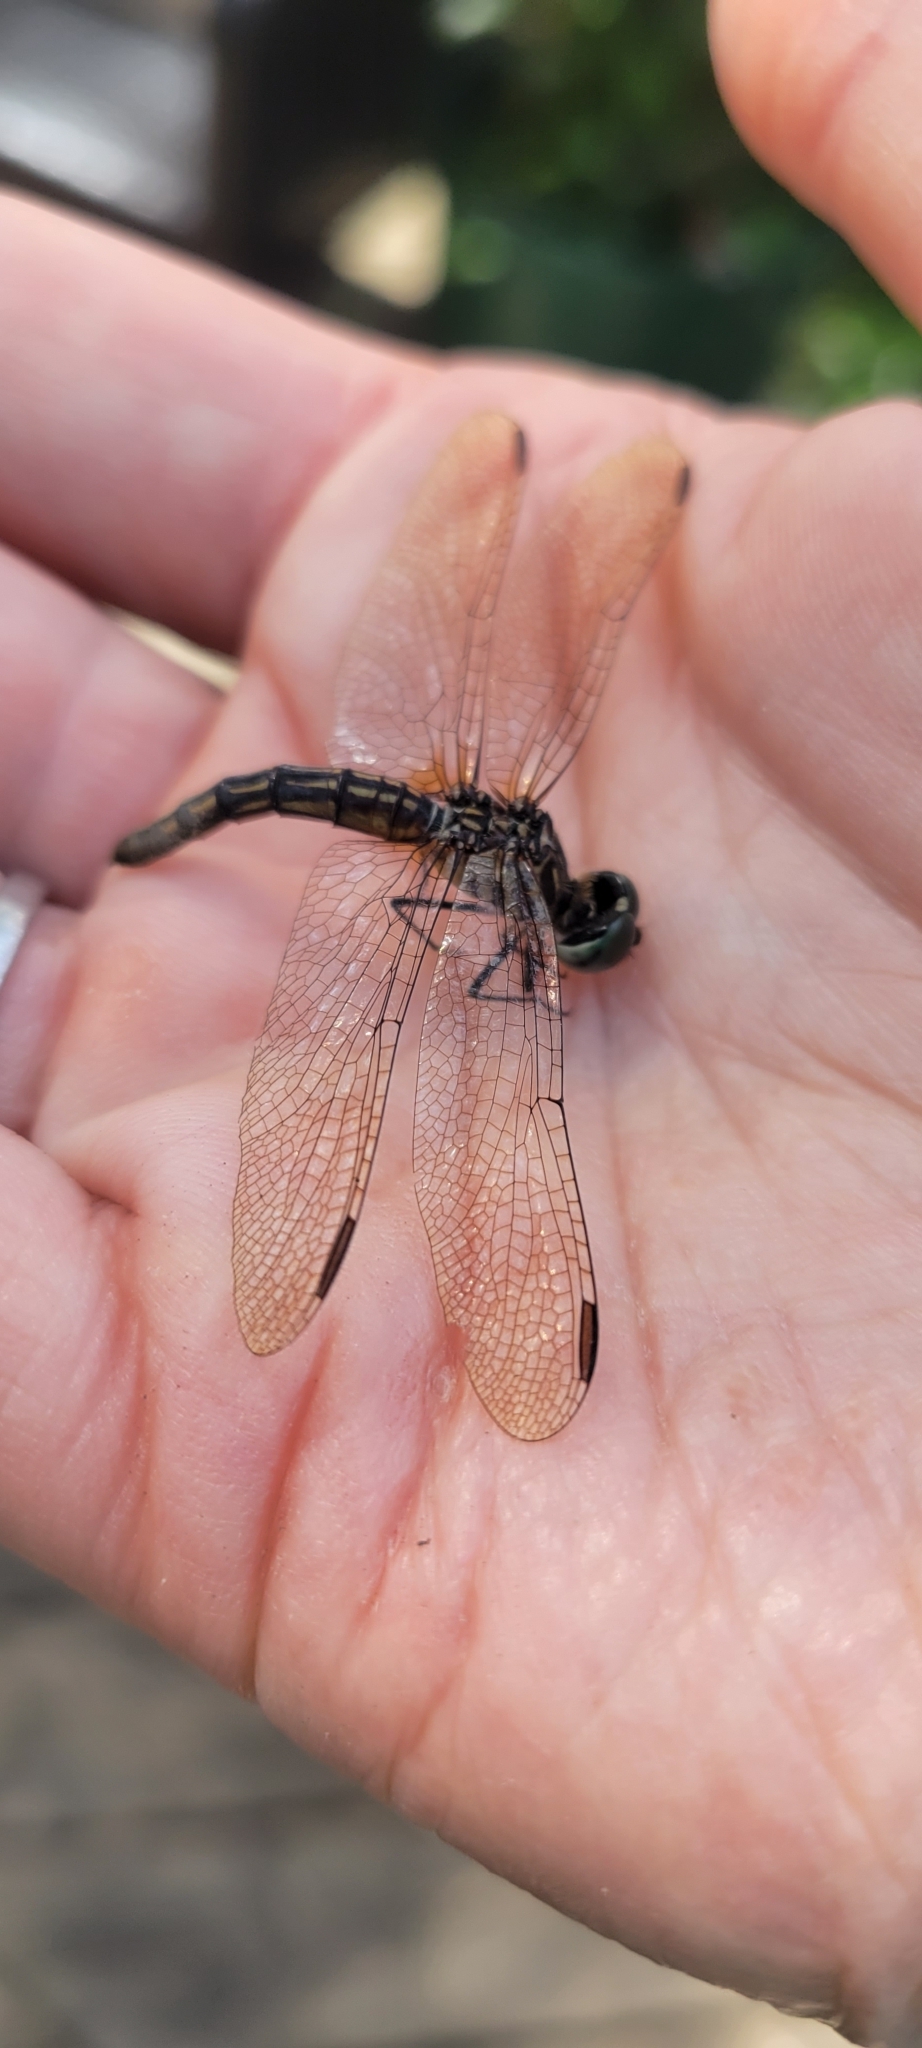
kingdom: Animalia
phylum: Arthropoda
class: Insecta
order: Odonata
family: Libellulidae
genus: Pachydiplax
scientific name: Pachydiplax longipennis
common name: Blue dasher
